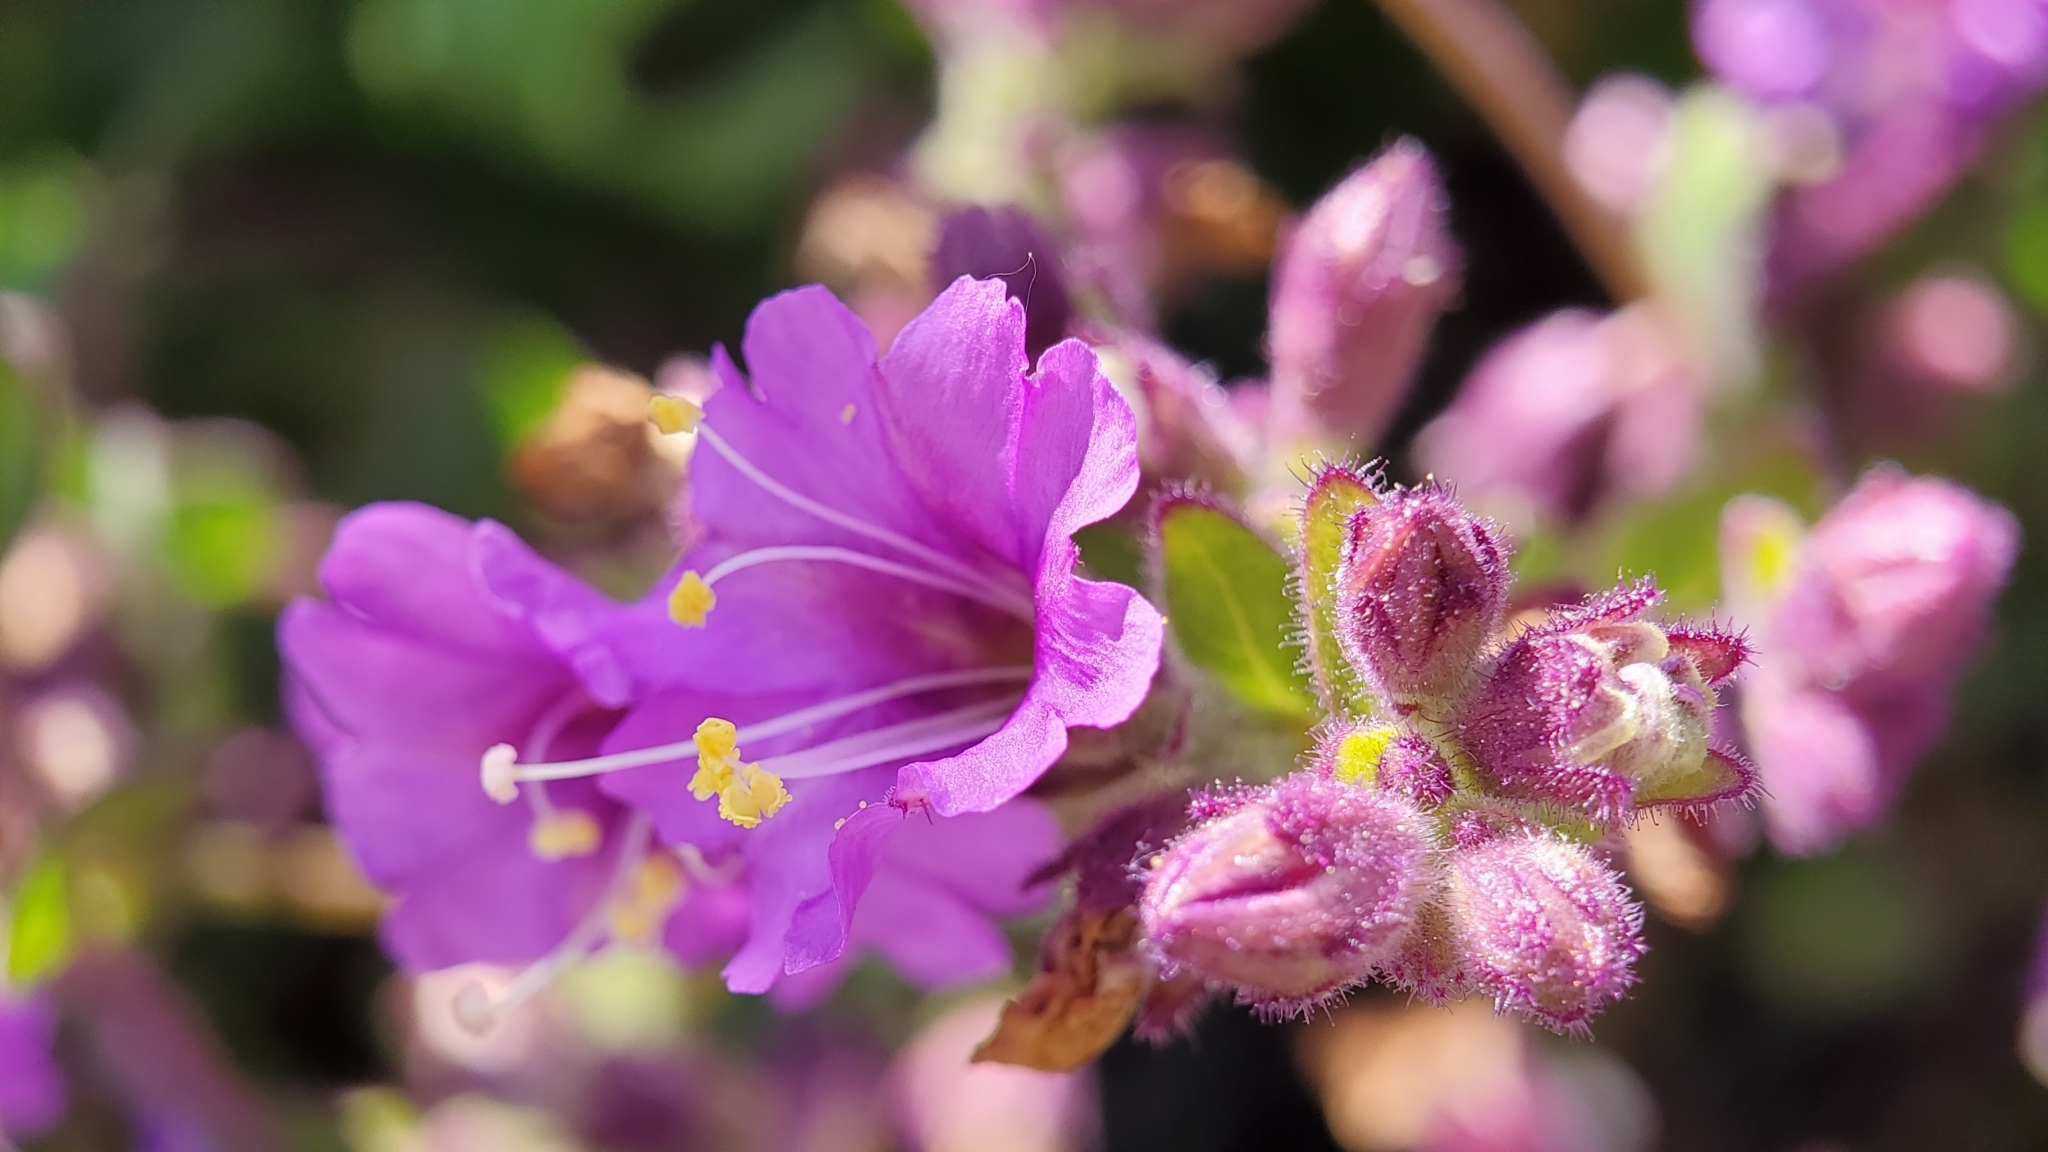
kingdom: Plantae
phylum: Tracheophyta
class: Magnoliopsida
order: Caryophyllales
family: Nyctaginaceae
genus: Mirabilis
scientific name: Mirabilis laevis
